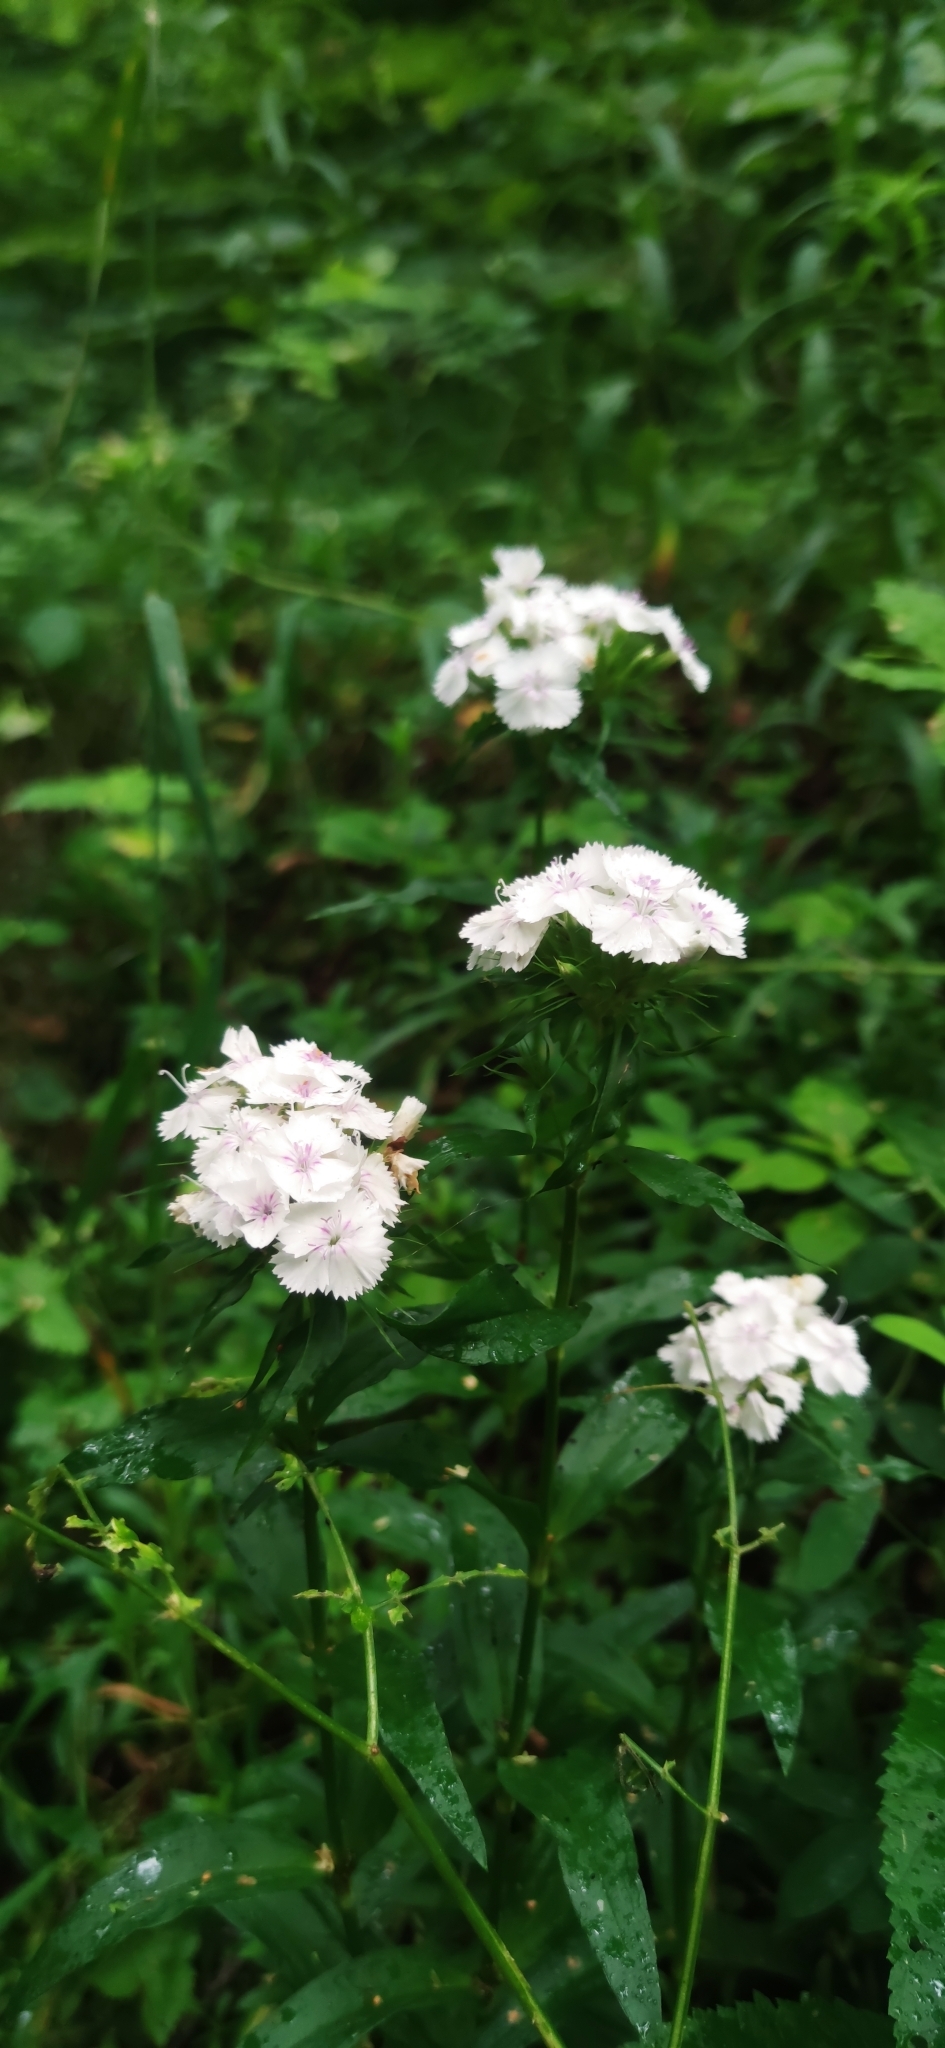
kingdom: Plantae
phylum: Tracheophyta
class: Magnoliopsida
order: Caryophyllales
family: Caryophyllaceae
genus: Dianthus
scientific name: Dianthus barbatus
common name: Sweet-william
